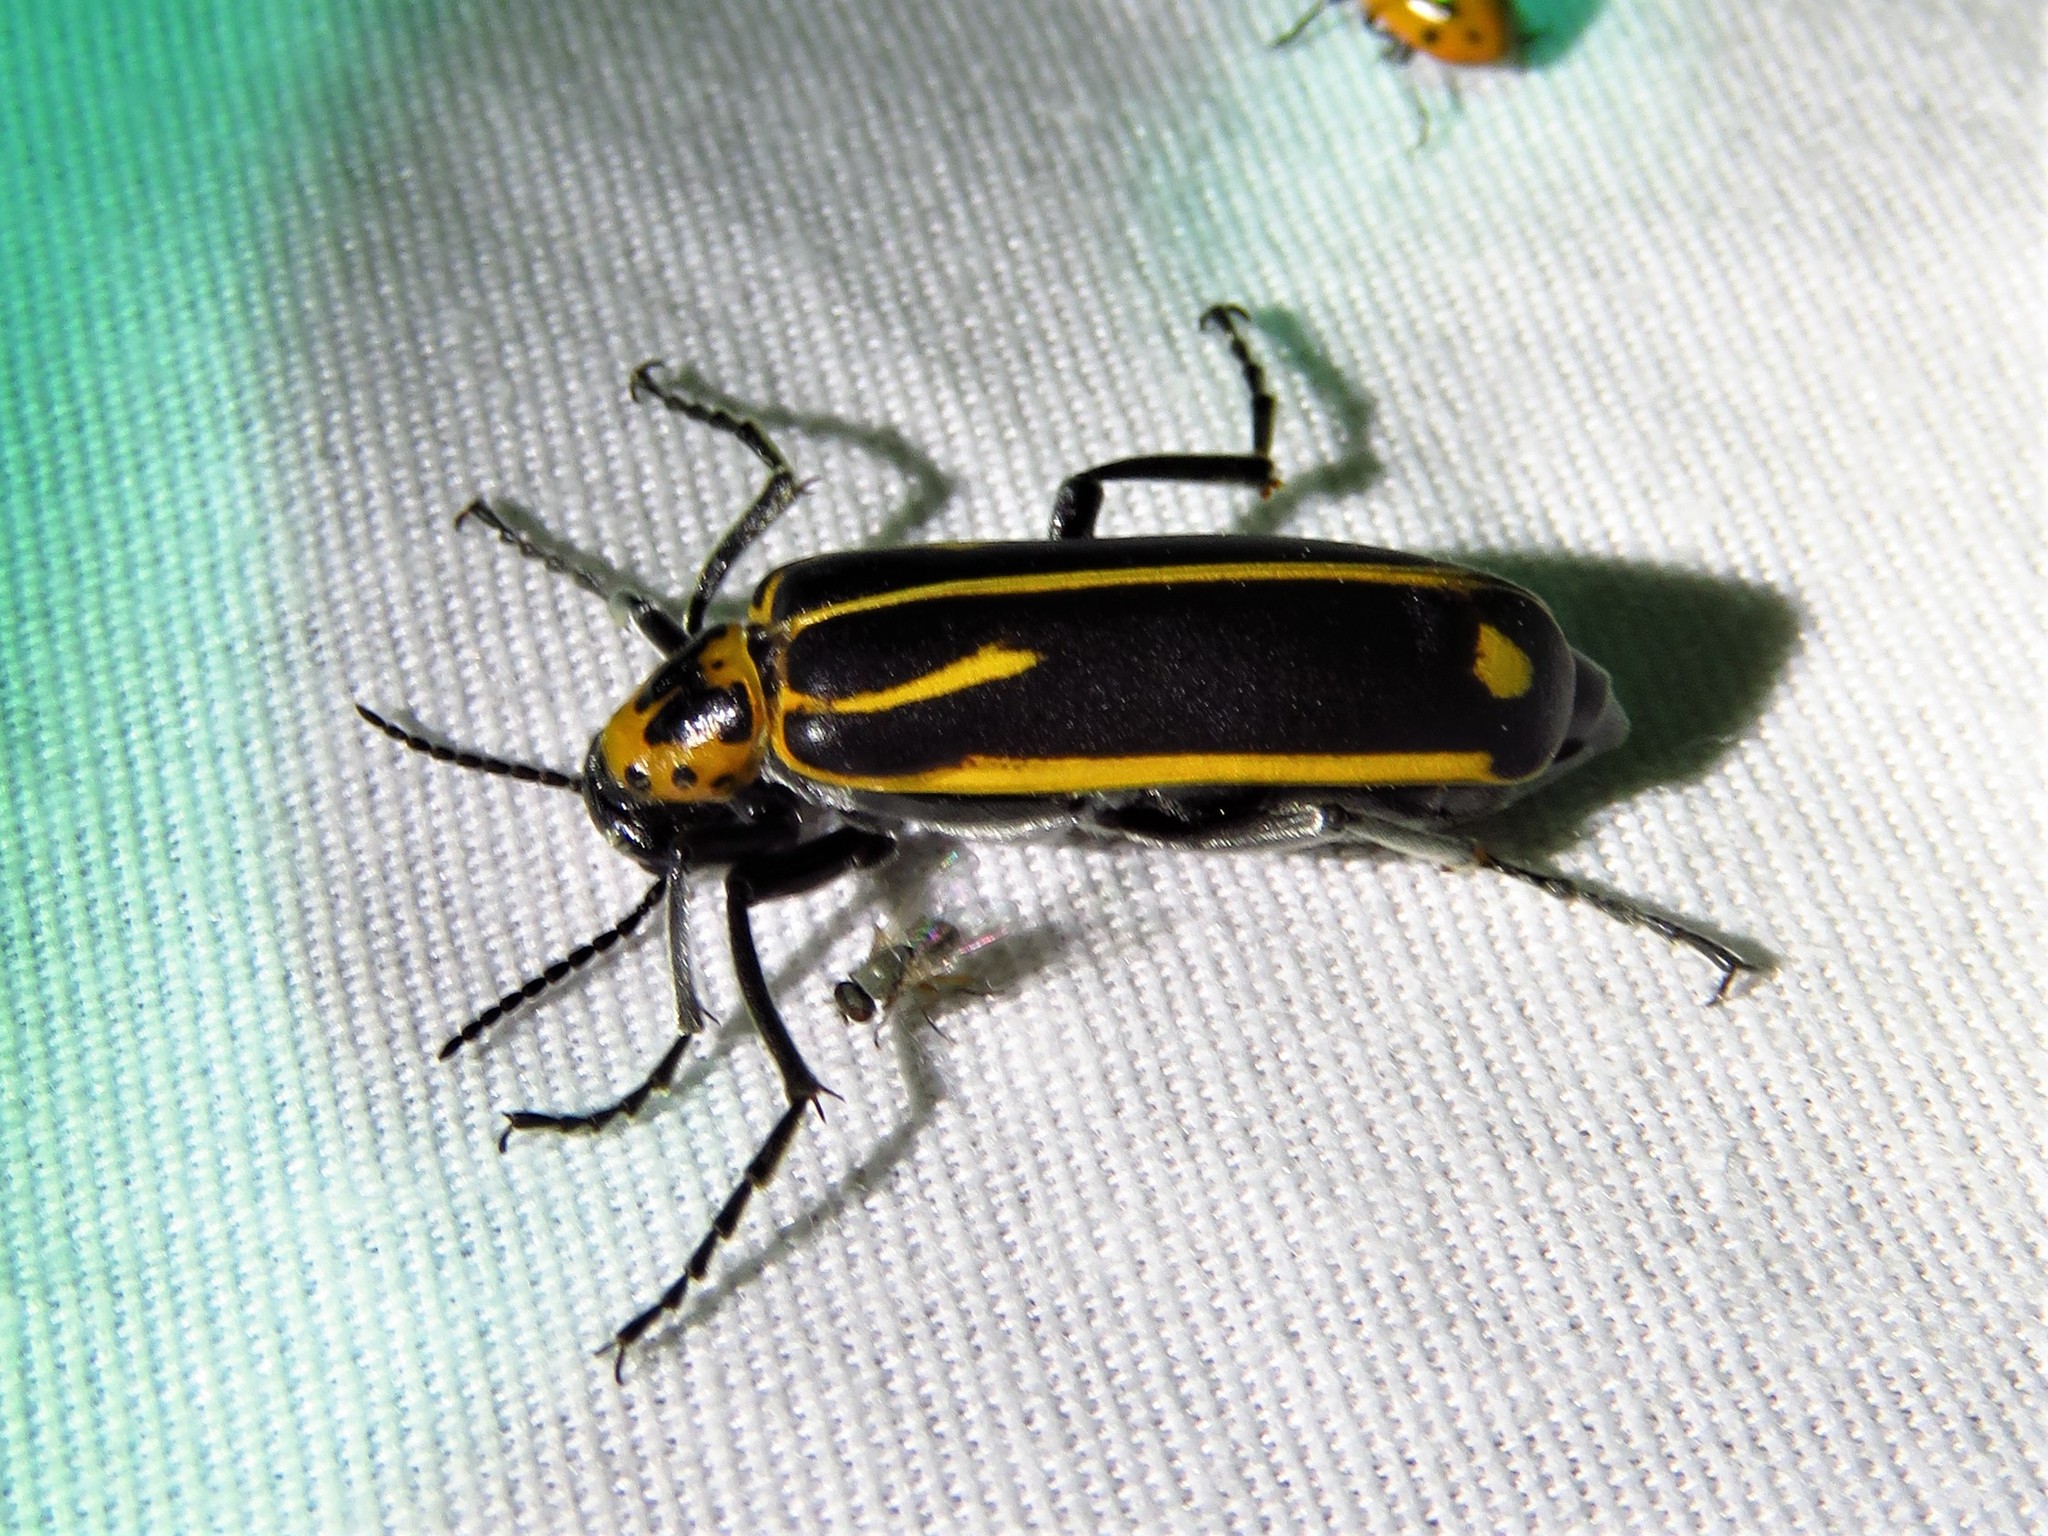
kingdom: Animalia
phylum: Arthropoda
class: Insecta
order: Coleoptera
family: Meloidae
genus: Pyrota
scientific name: Pyrota insulata
